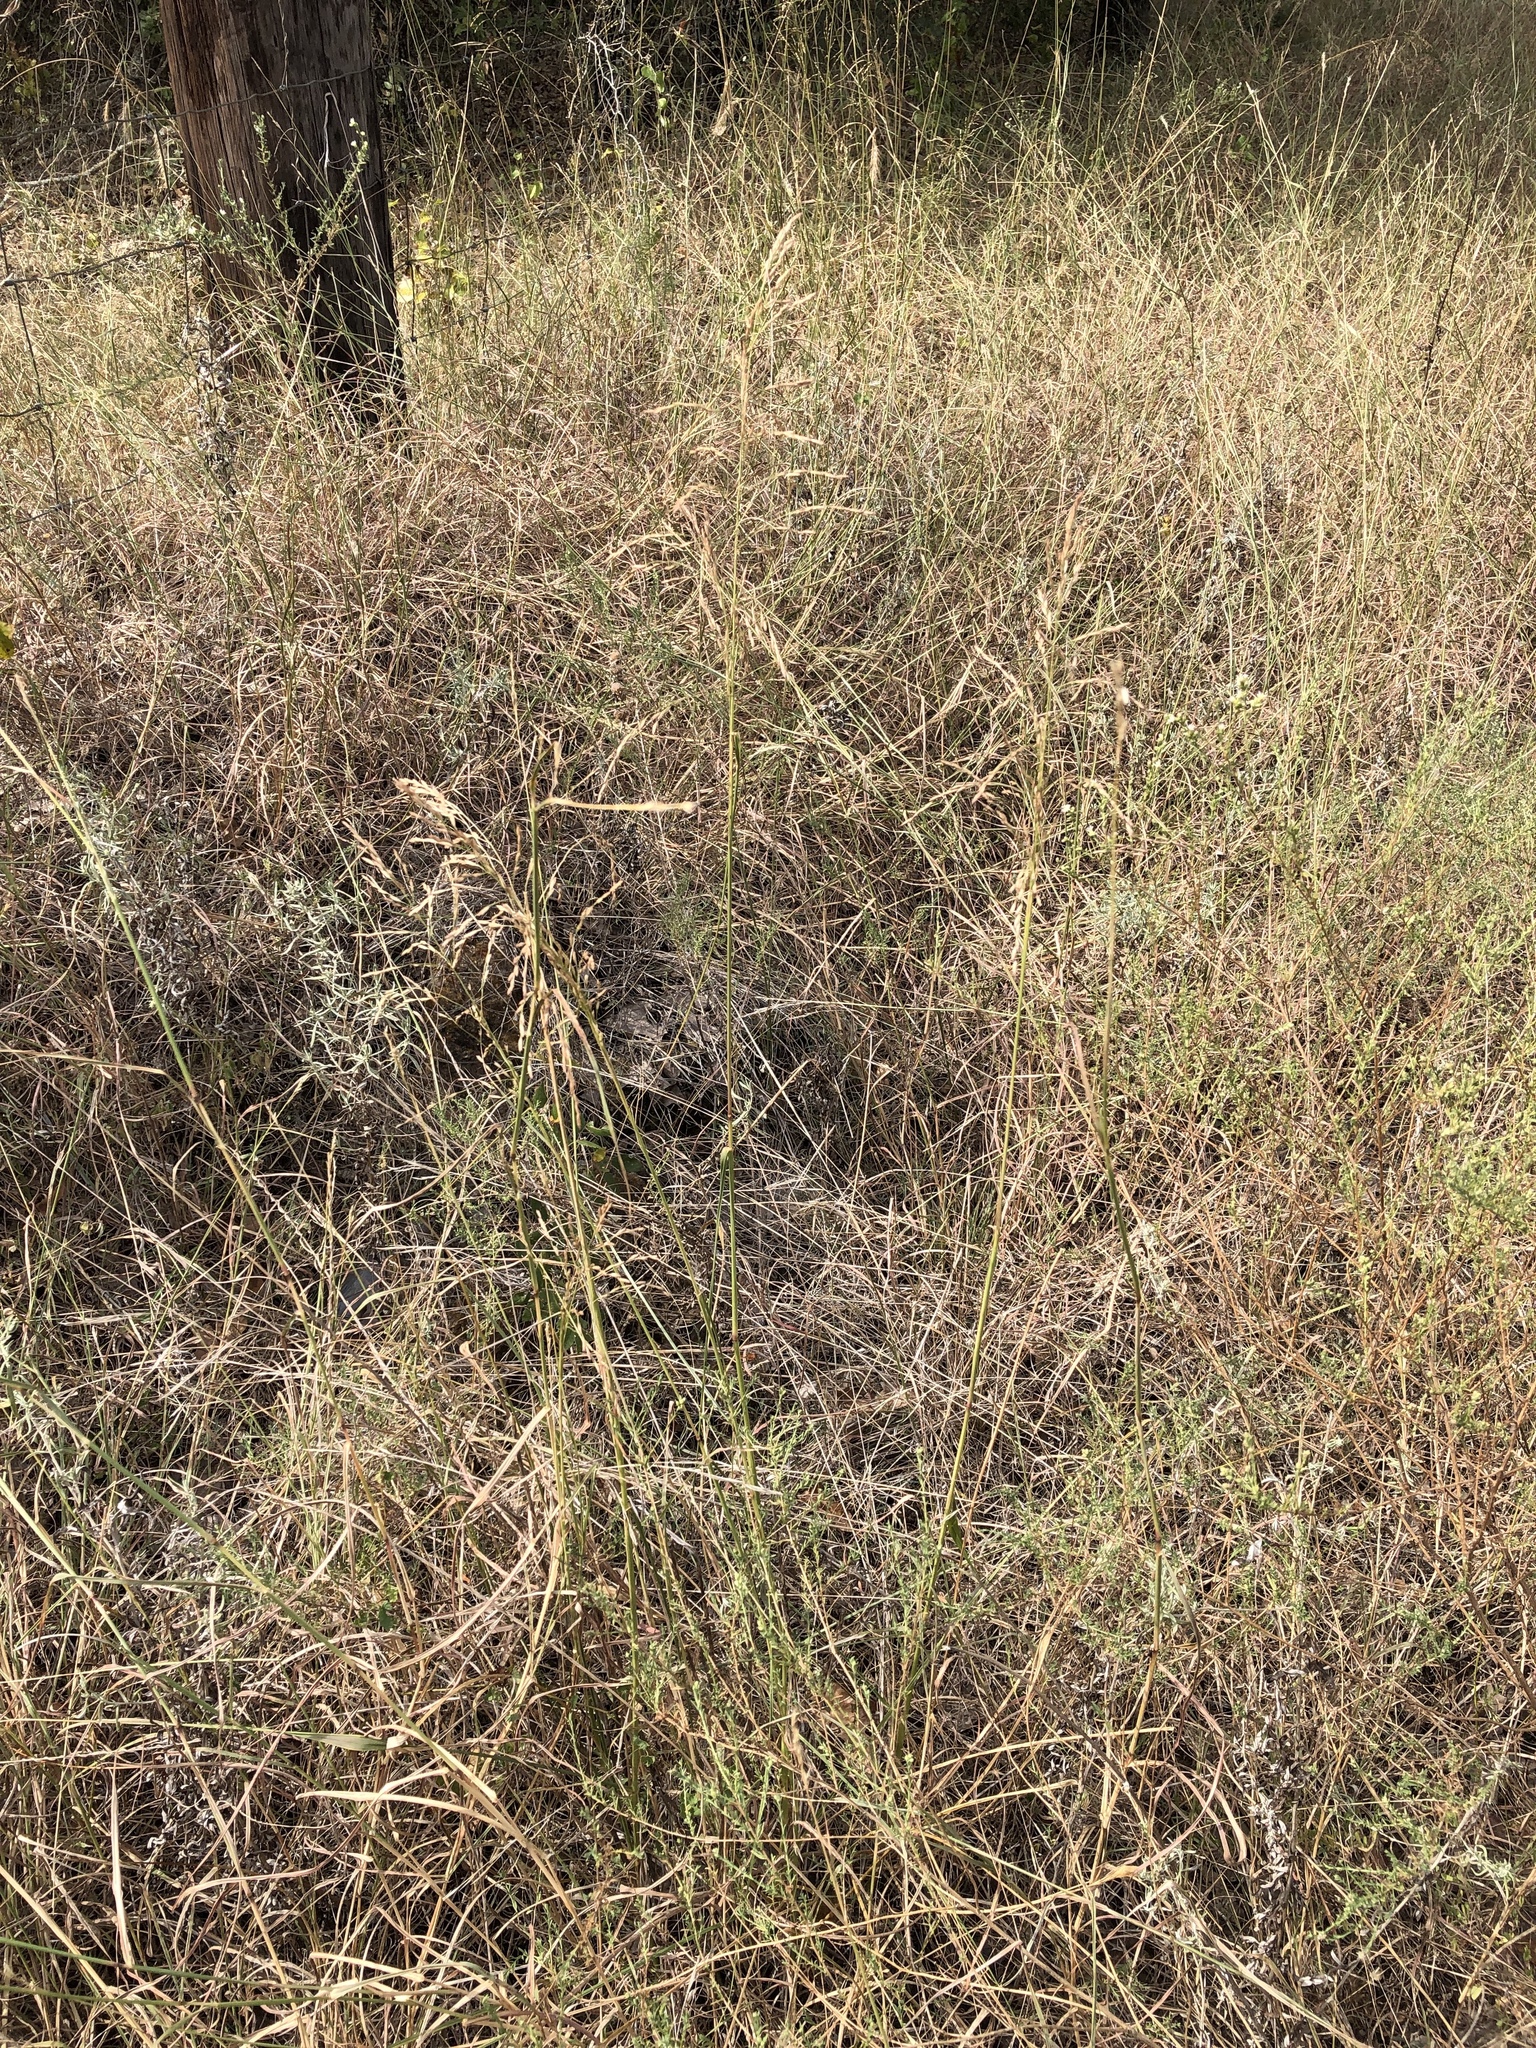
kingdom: Plantae
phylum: Tracheophyta
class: Liliopsida
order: Poales
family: Poaceae
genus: Tridens
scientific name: Tridens flavus
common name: Purpletop
